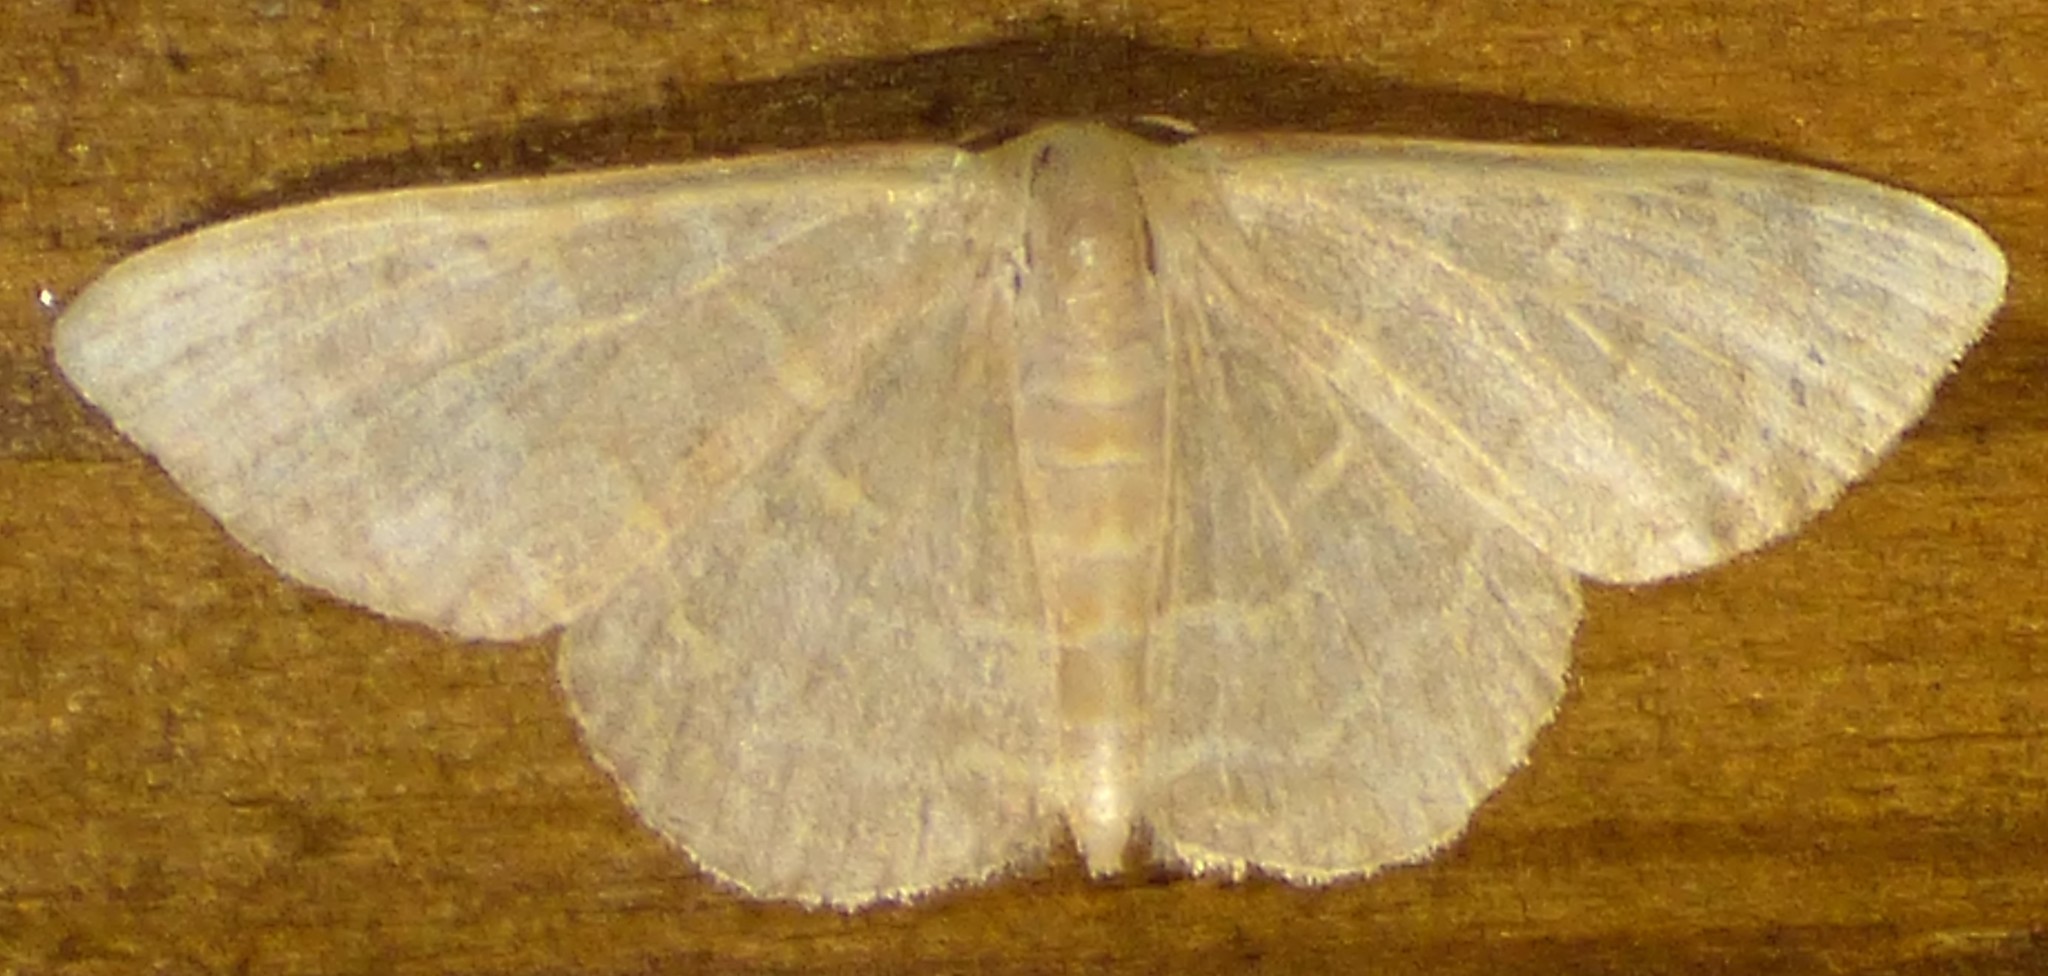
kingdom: Animalia
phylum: Arthropoda
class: Insecta
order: Lepidoptera
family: Geometridae
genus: Leptostales
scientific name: Leptostales pannaria
